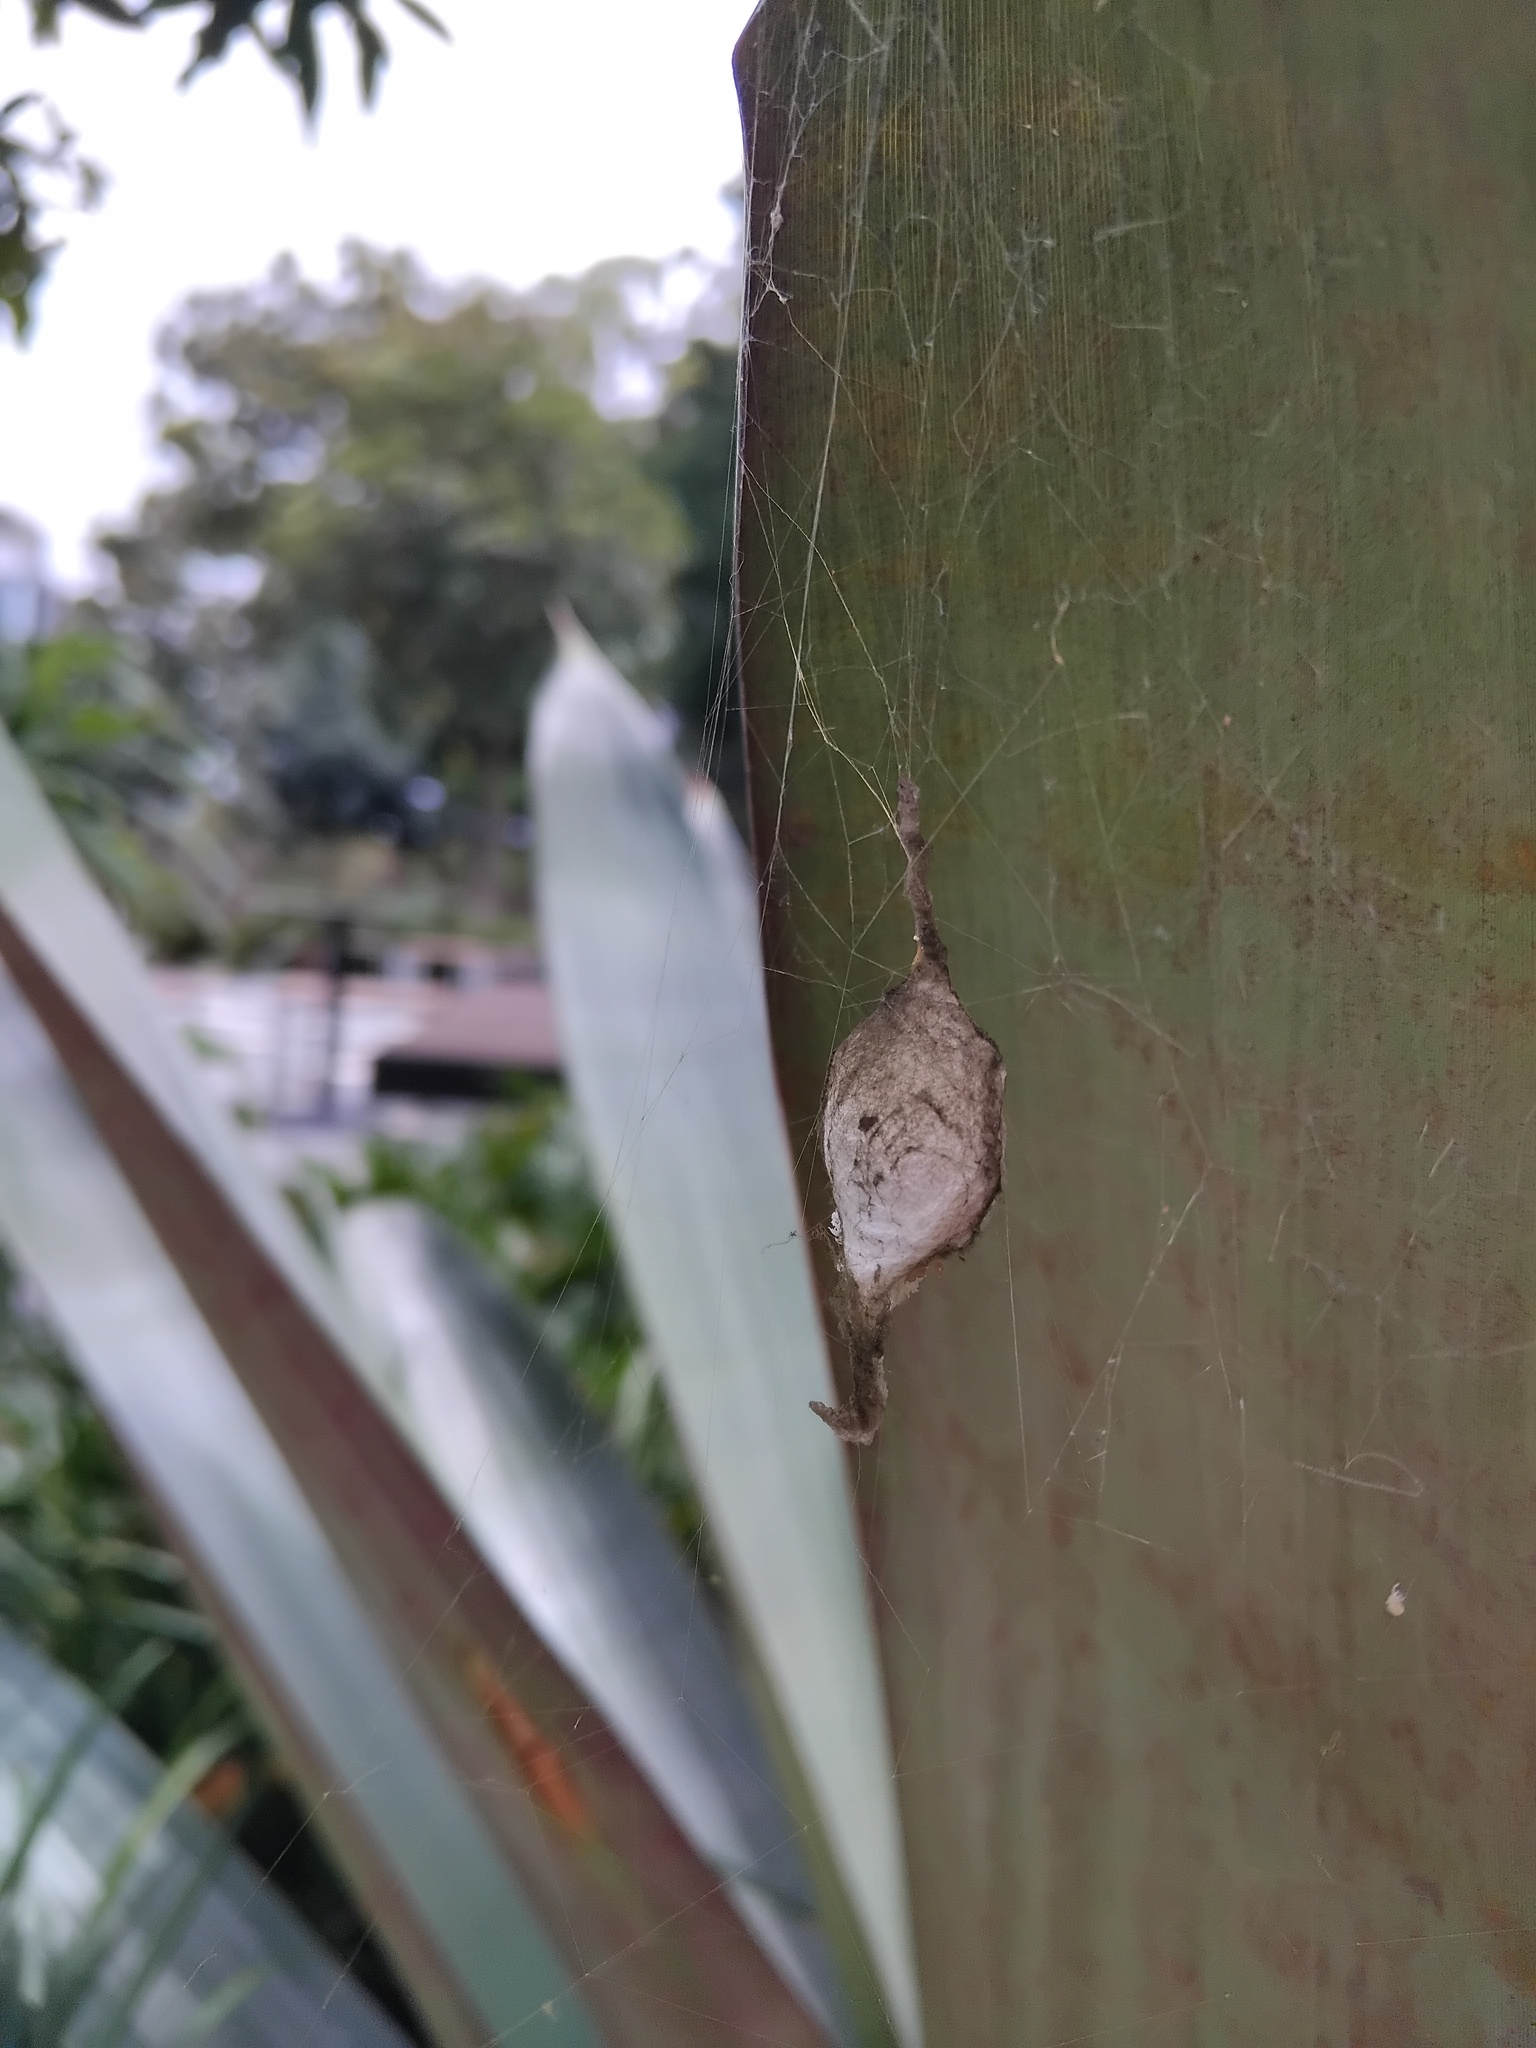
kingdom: Animalia
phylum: Arthropoda
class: Arachnida
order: Araneae
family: Araneidae
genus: Argiope
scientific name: Argiope keyserlingi
